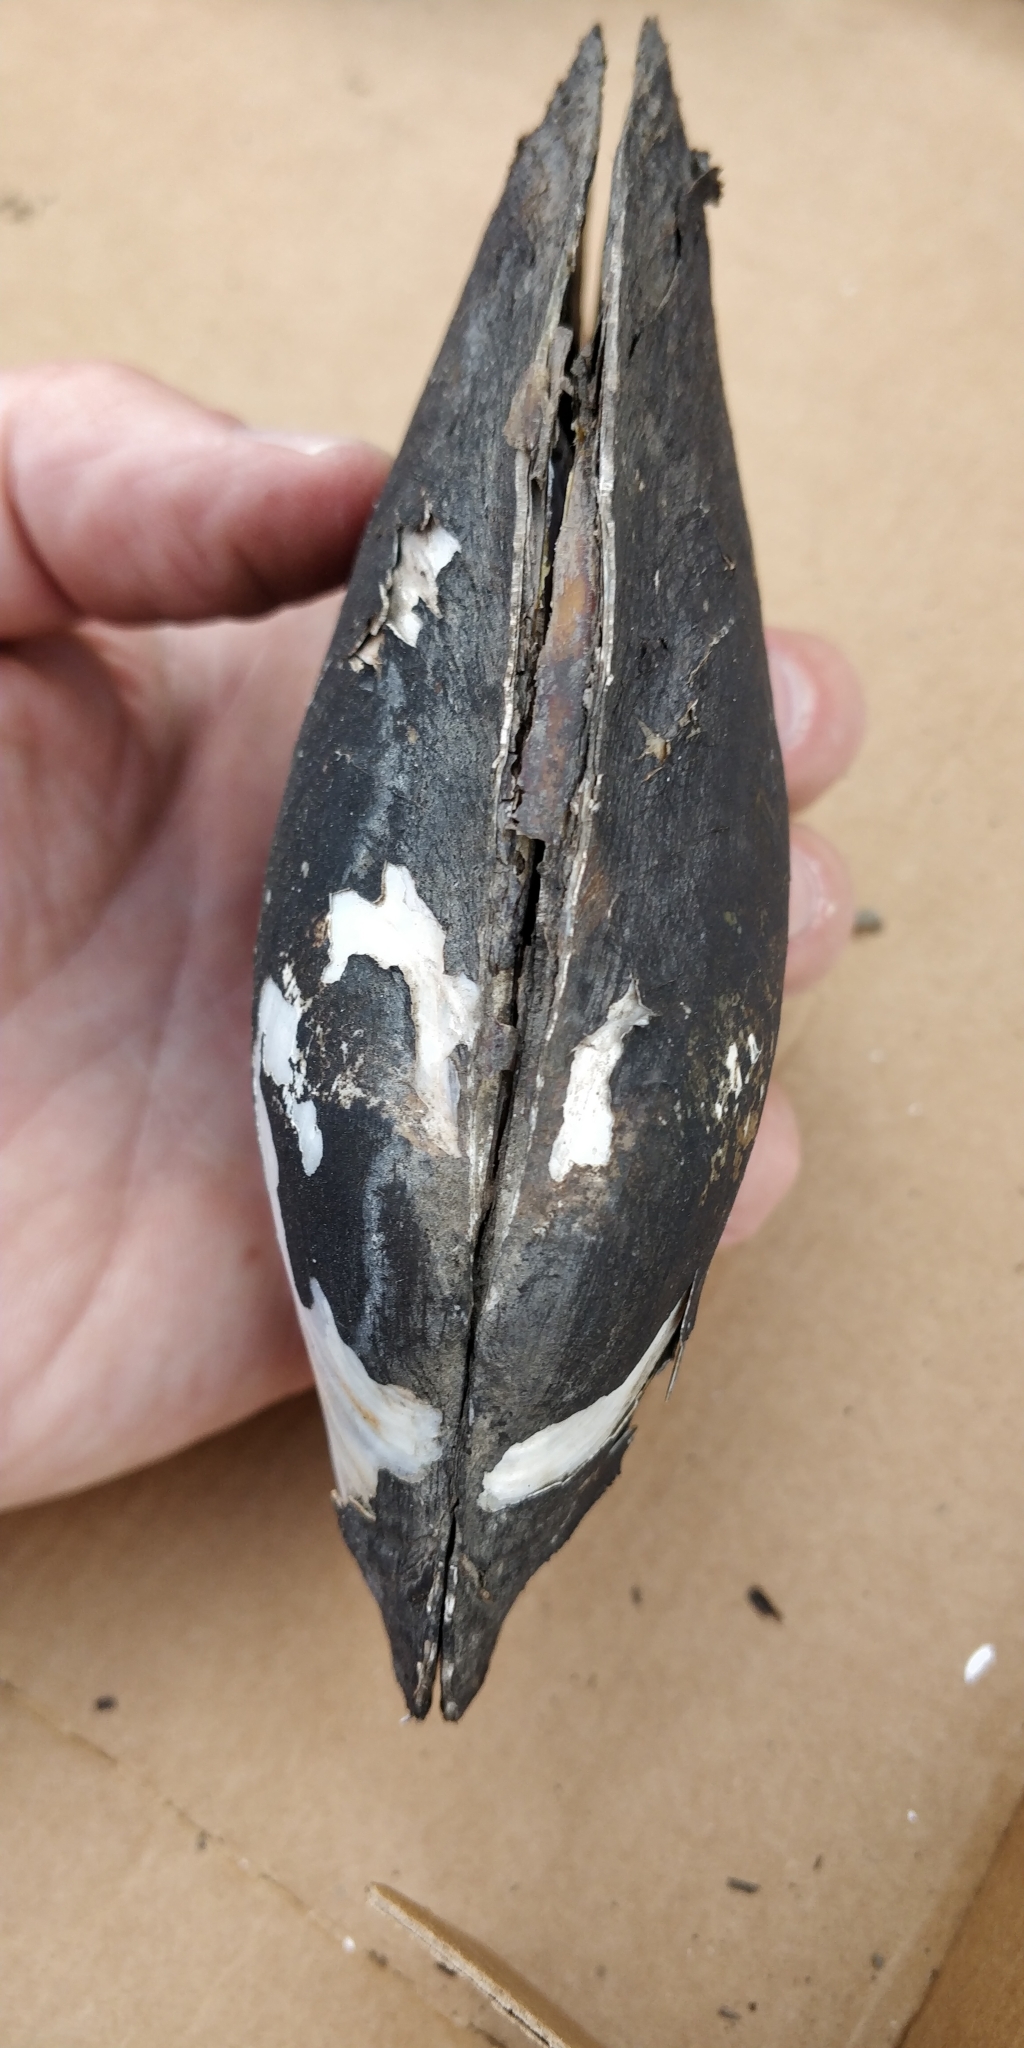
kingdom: Animalia
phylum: Mollusca
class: Bivalvia
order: Unionida
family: Unionidae
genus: Potamilus
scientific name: Potamilus fragilis
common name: Fragile papershell
